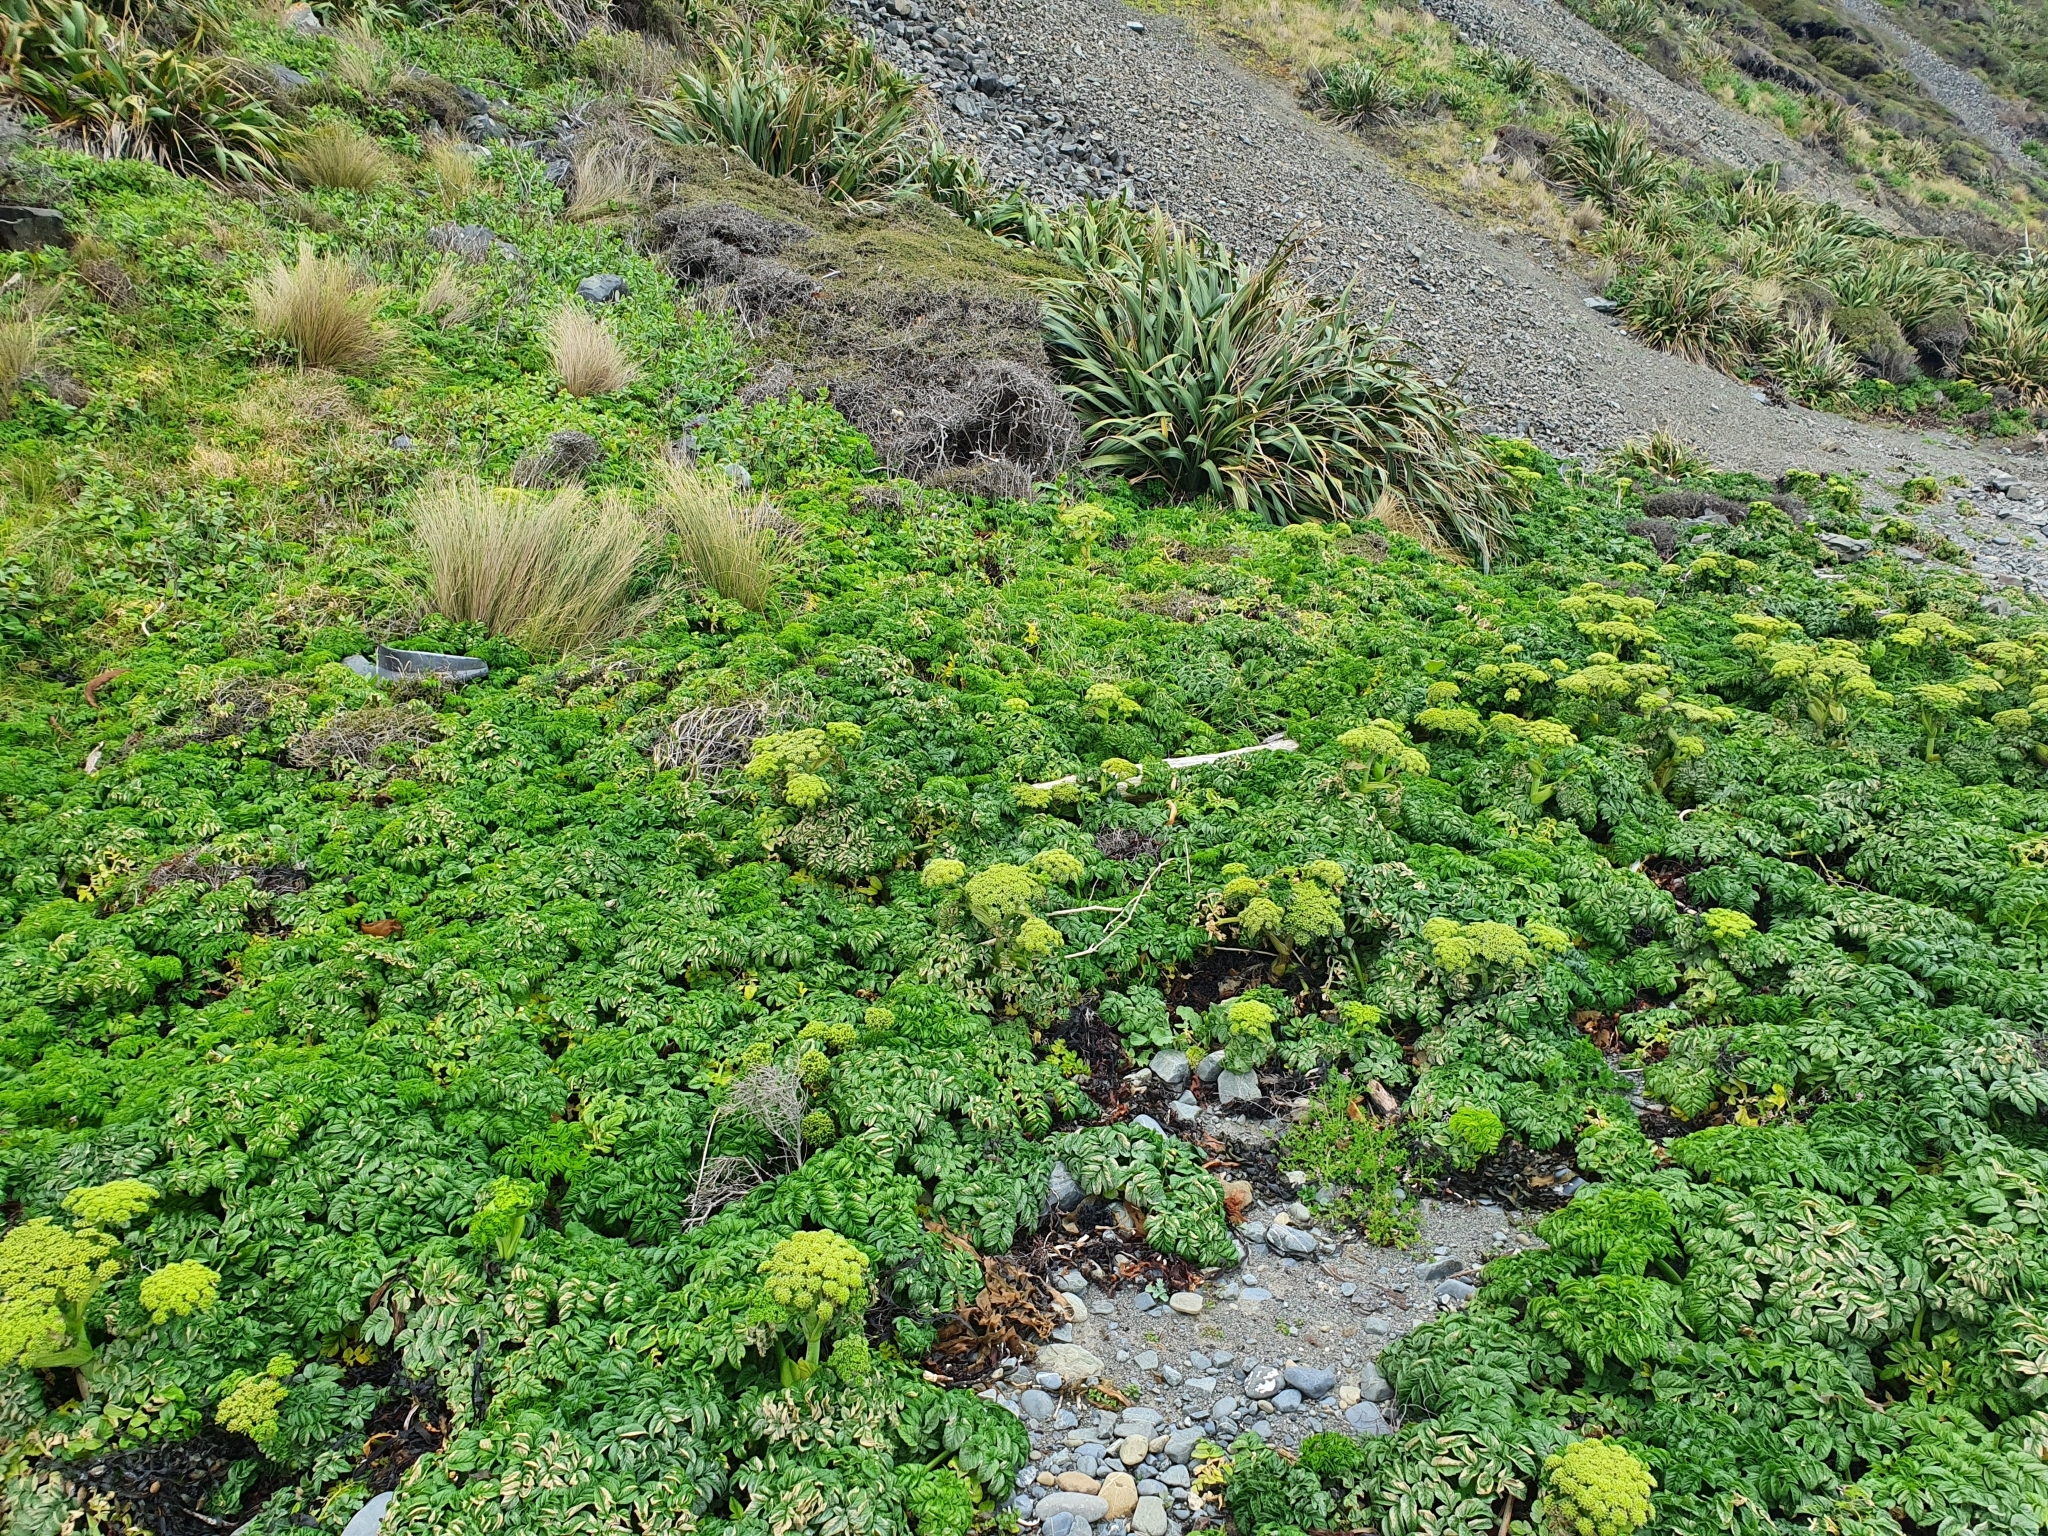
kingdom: Plantae
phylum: Tracheophyta
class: Magnoliopsida
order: Apiales
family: Apiaceae
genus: Angelica
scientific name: Angelica pachycarpa
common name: Portuguese angelica
